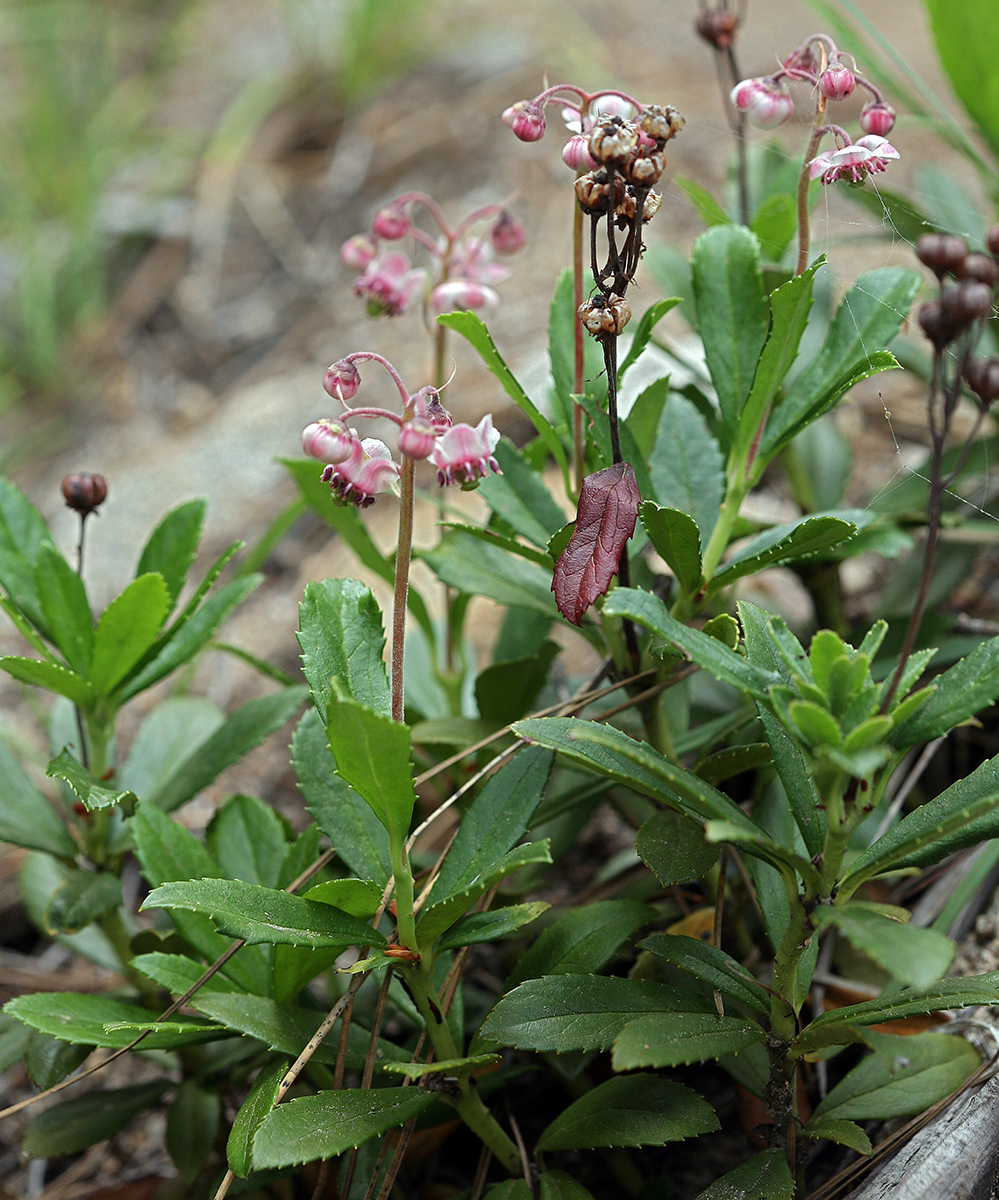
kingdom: Plantae
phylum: Tracheophyta
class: Magnoliopsida
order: Ericales
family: Ericaceae
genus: Chimaphila
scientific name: Chimaphila umbellata
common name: Pipsissewa
